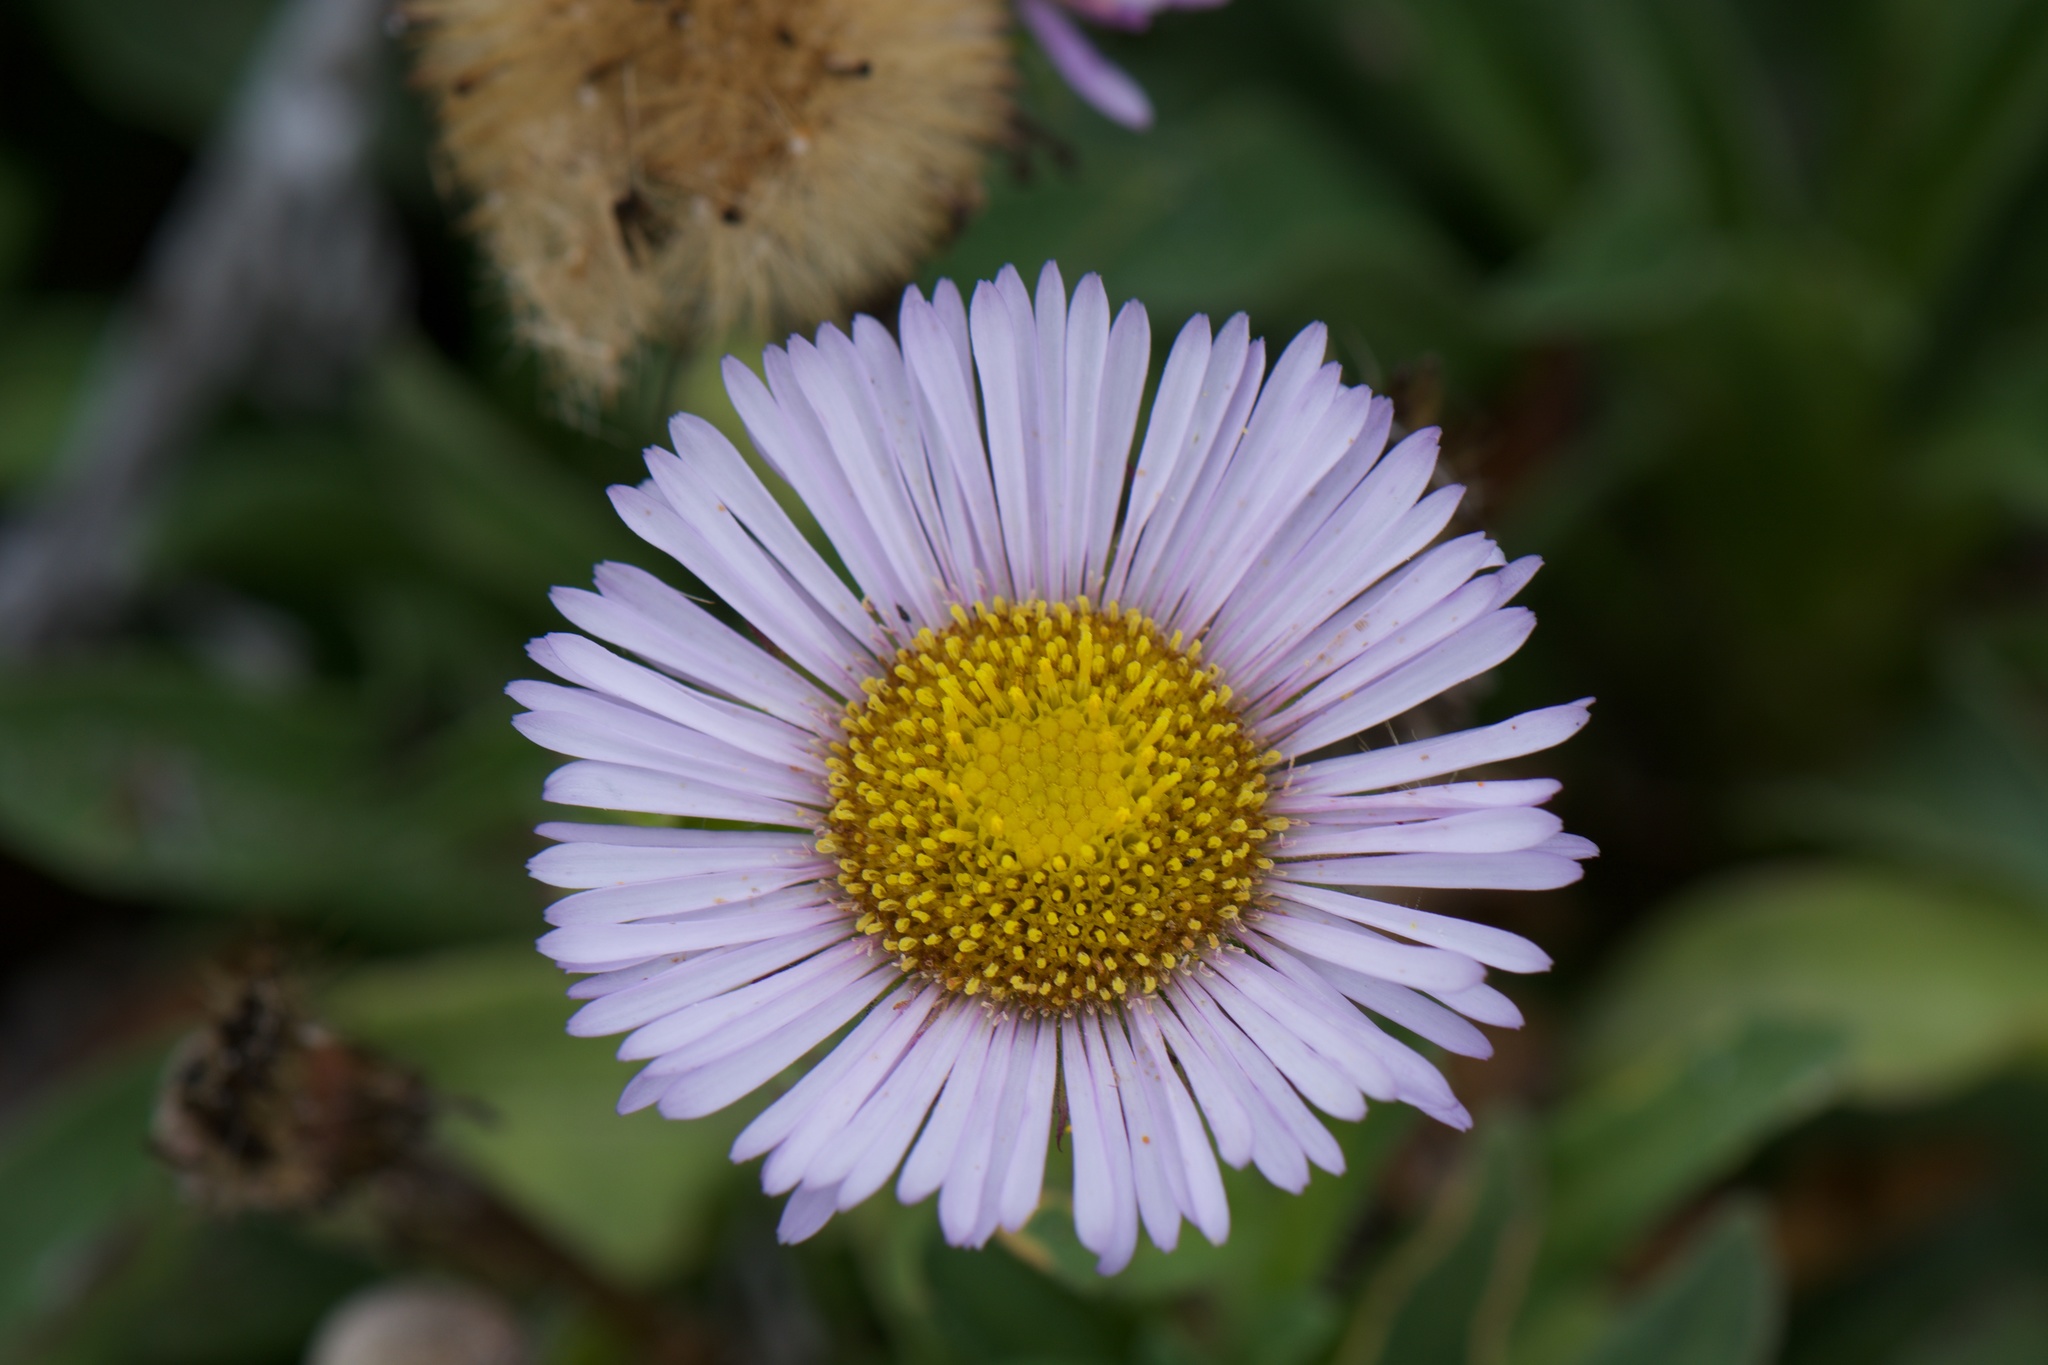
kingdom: Plantae
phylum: Tracheophyta
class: Magnoliopsida
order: Asterales
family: Asteraceae
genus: Erigeron
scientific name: Erigeron glaucus
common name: Seaside daisy
